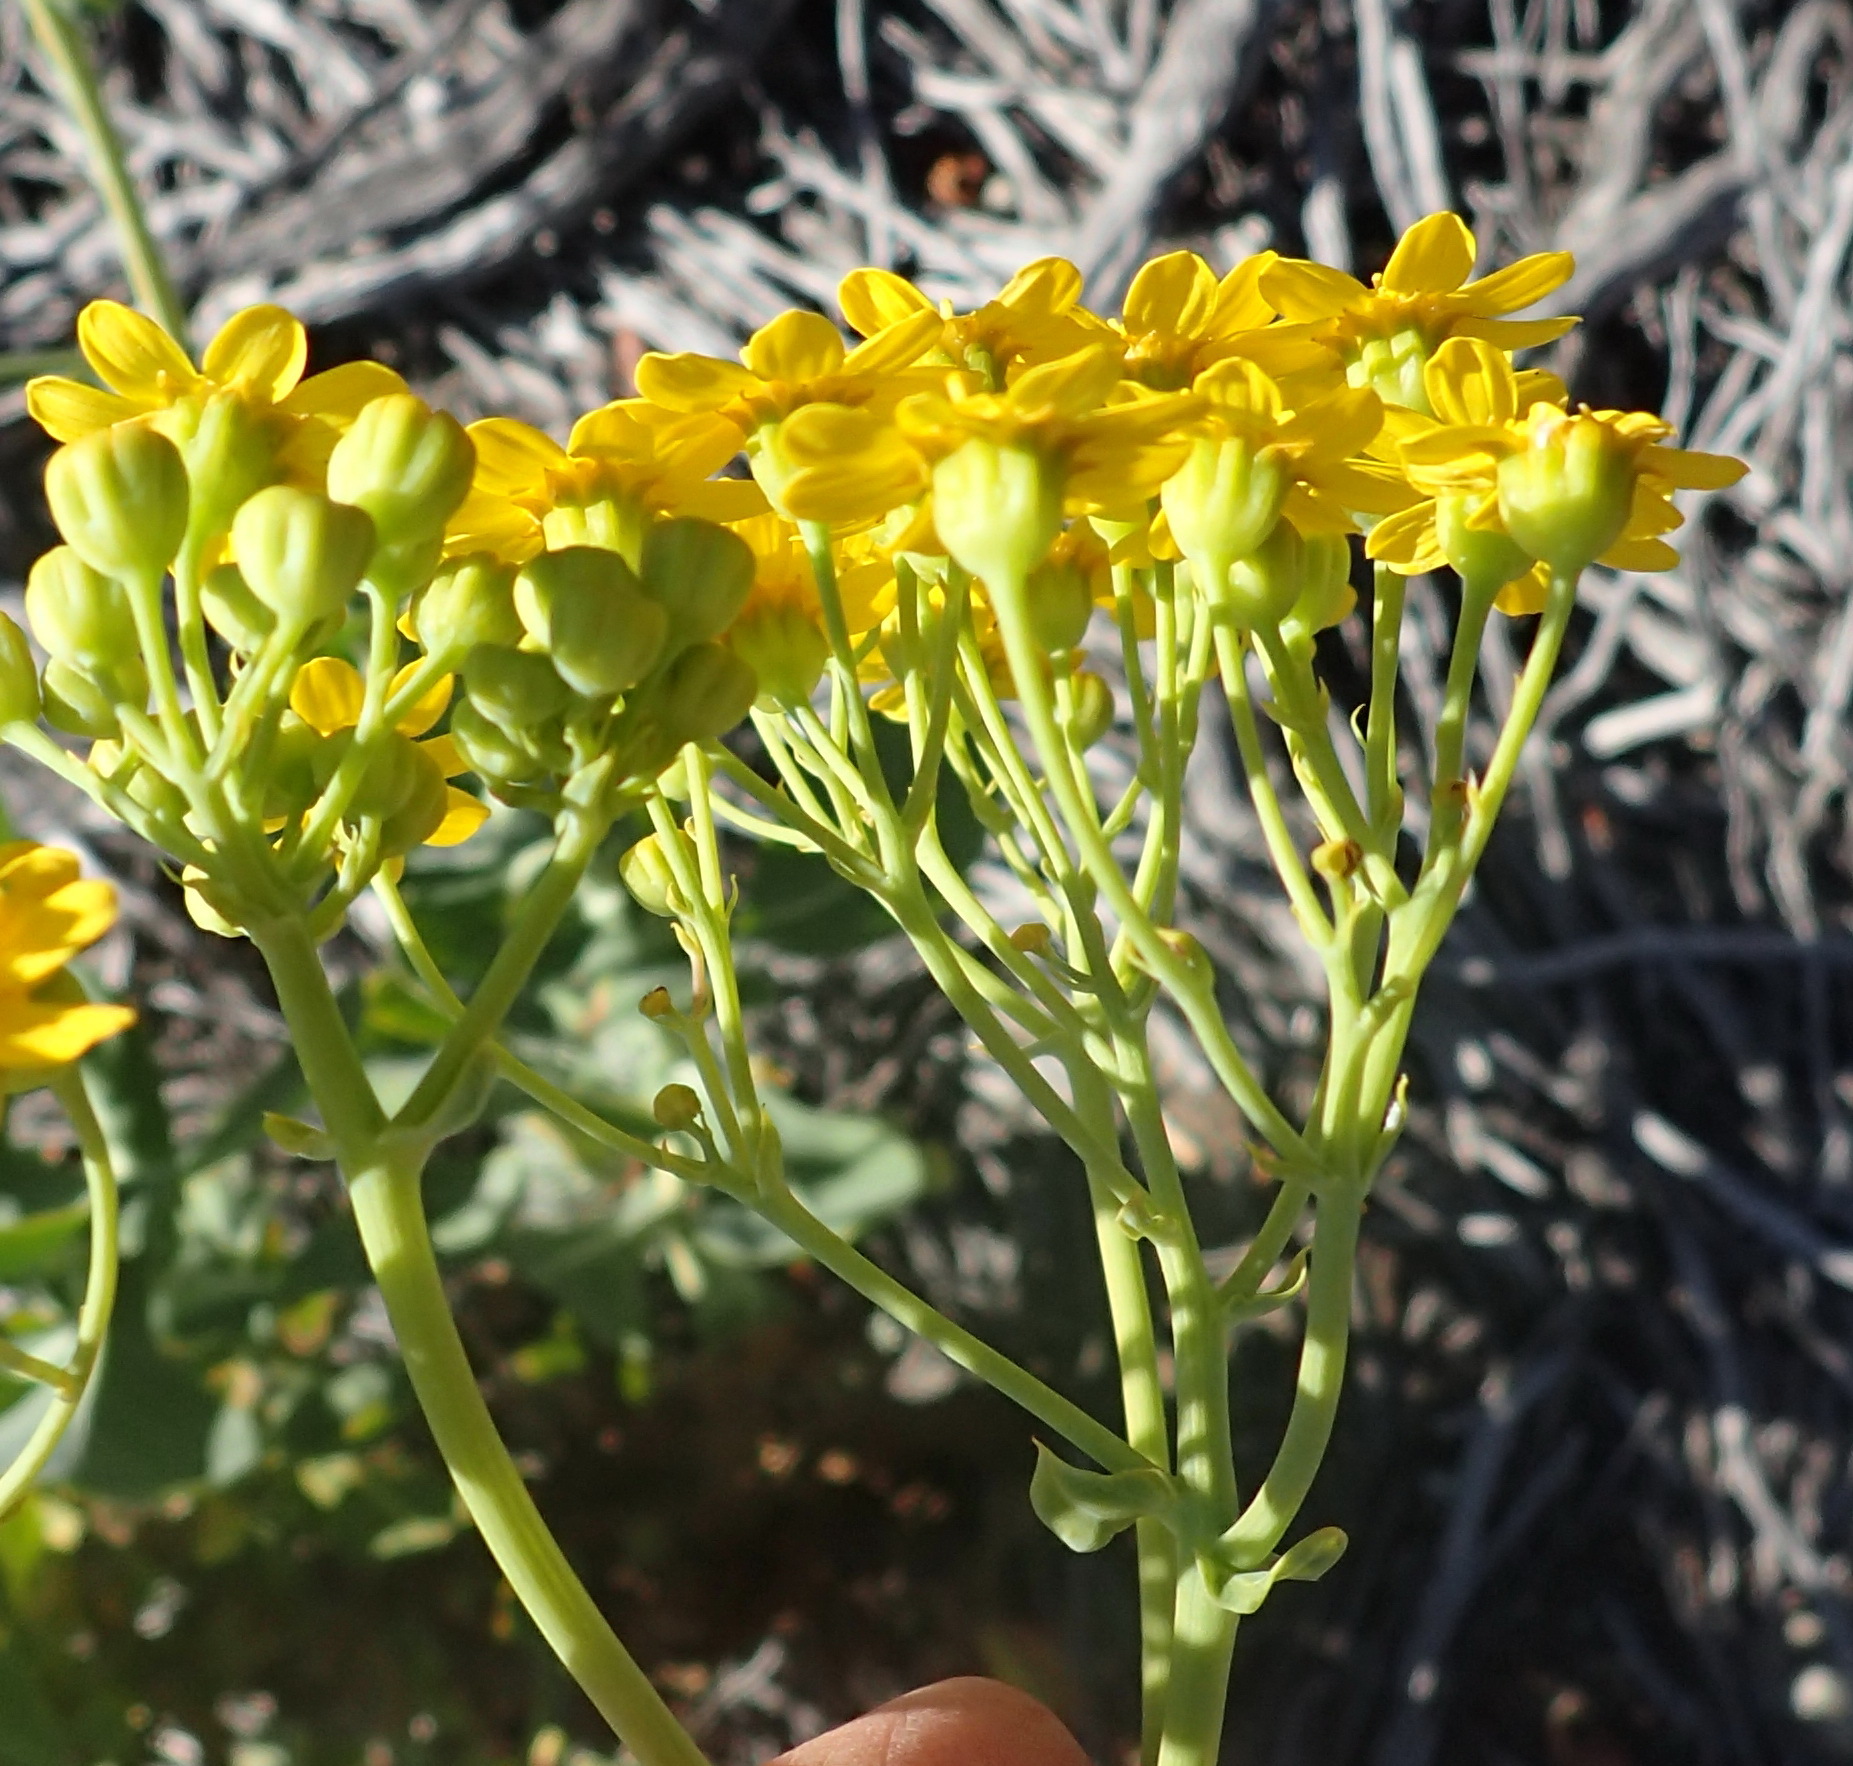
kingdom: Plantae
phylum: Tracheophyta
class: Magnoliopsida
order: Asterales
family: Asteraceae
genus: Othonna
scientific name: Othonna parviflora
